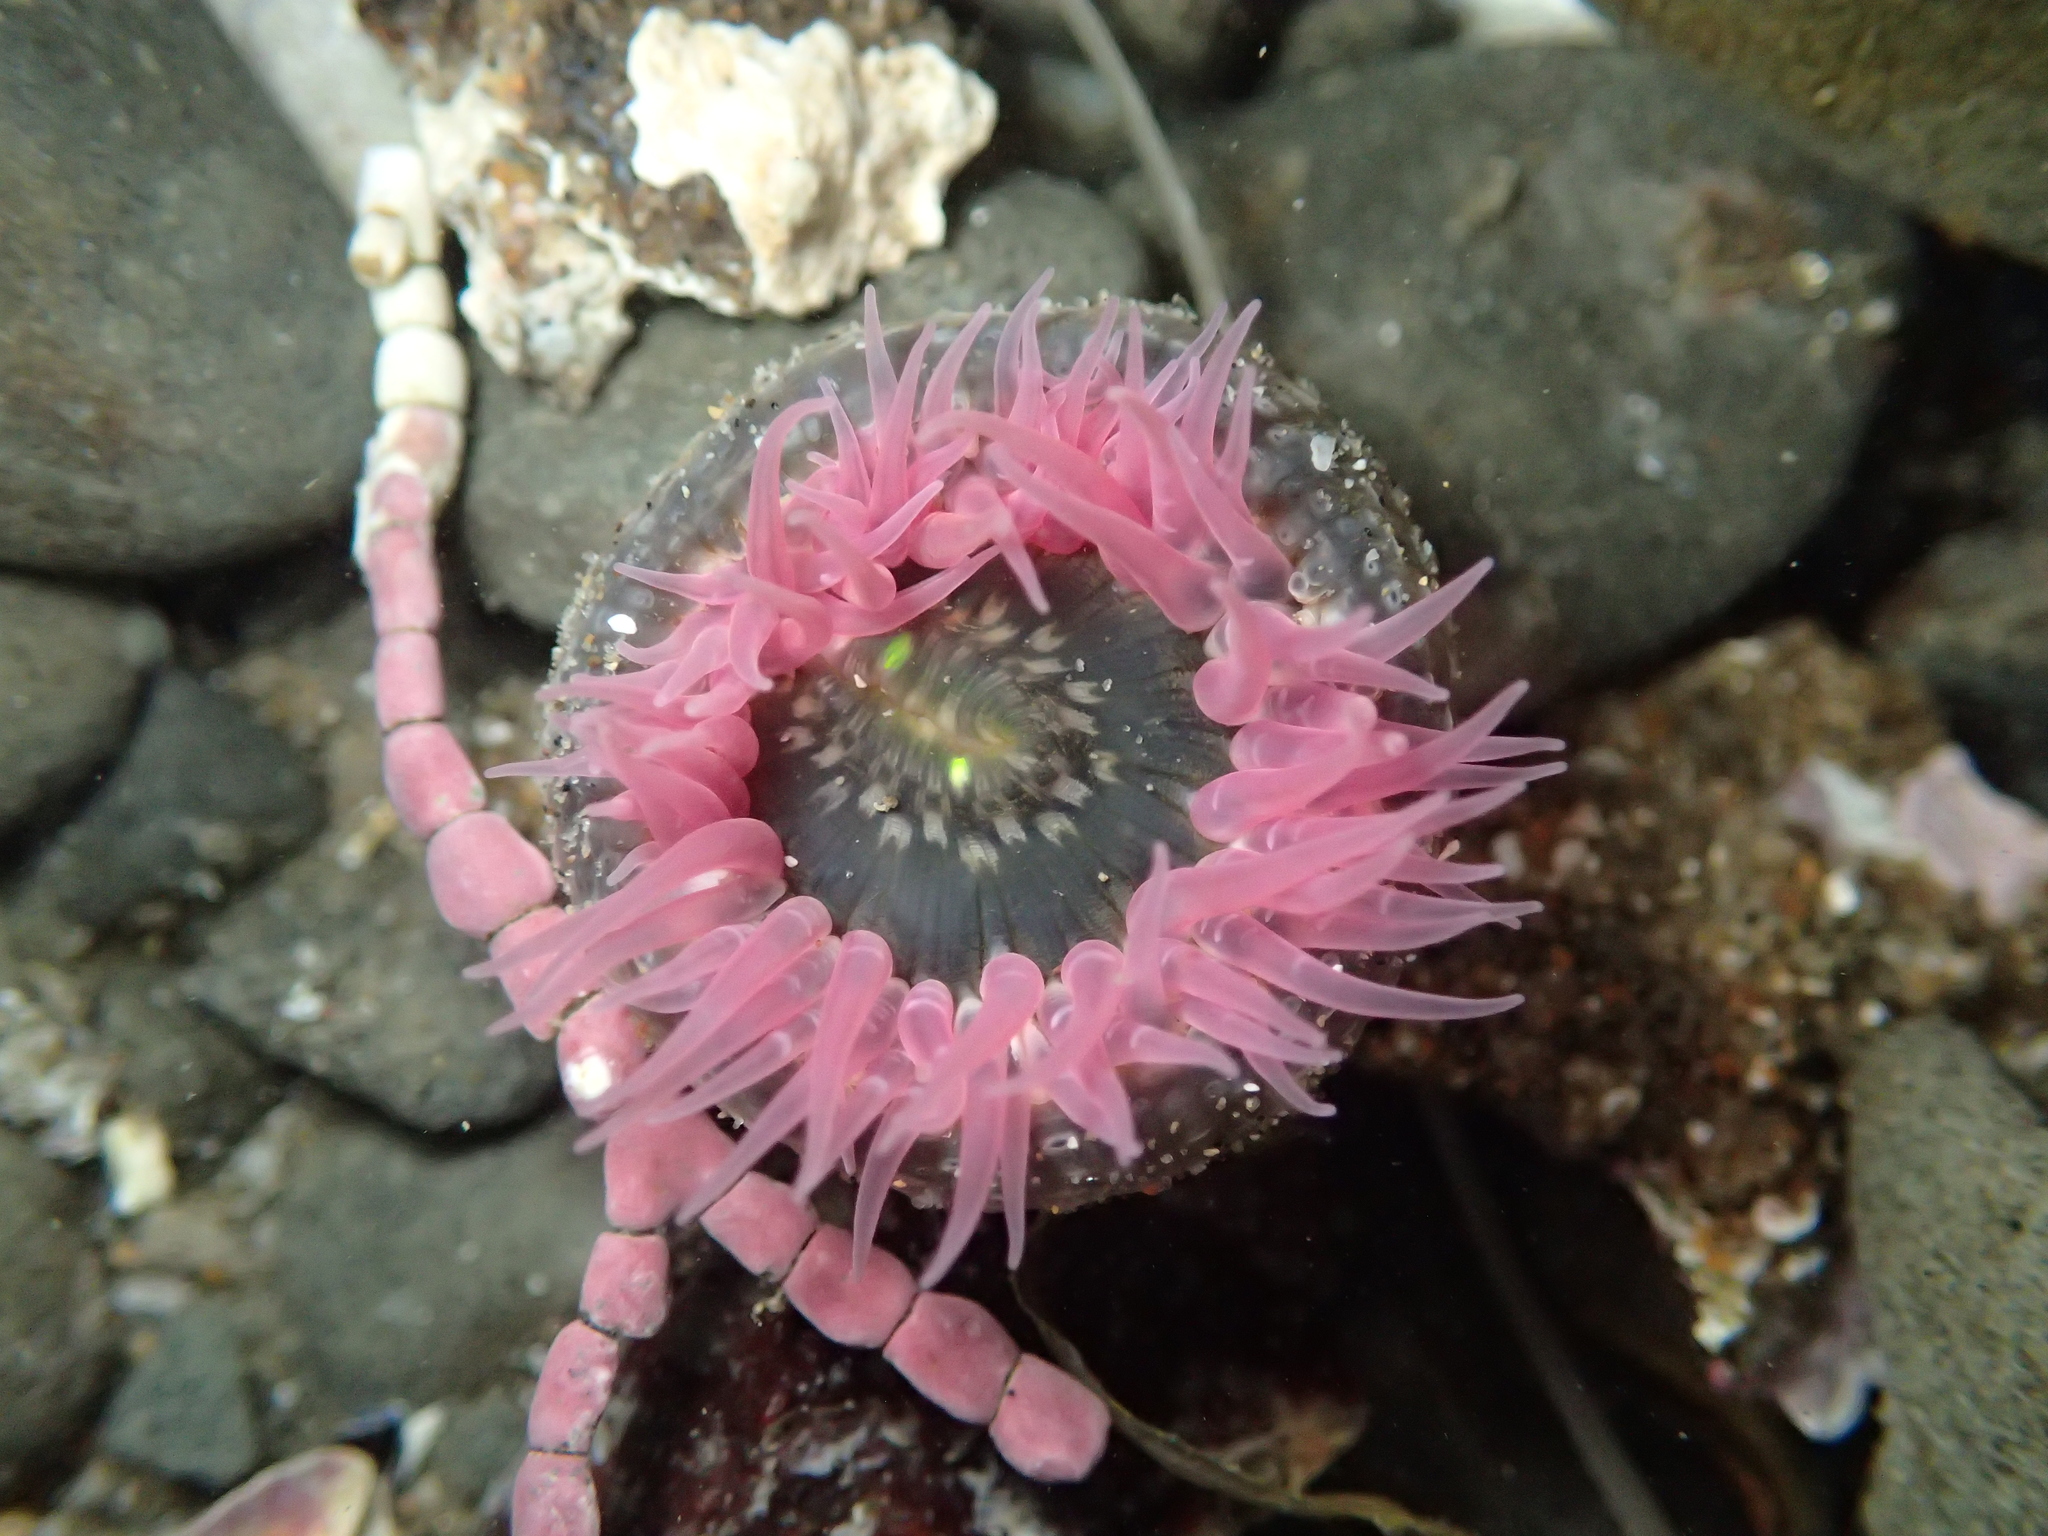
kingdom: Animalia
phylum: Cnidaria
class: Anthozoa
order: Actiniaria
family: Actiniidae
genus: Anthopleura
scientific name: Anthopleura artemisia
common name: Buried sea anemone
